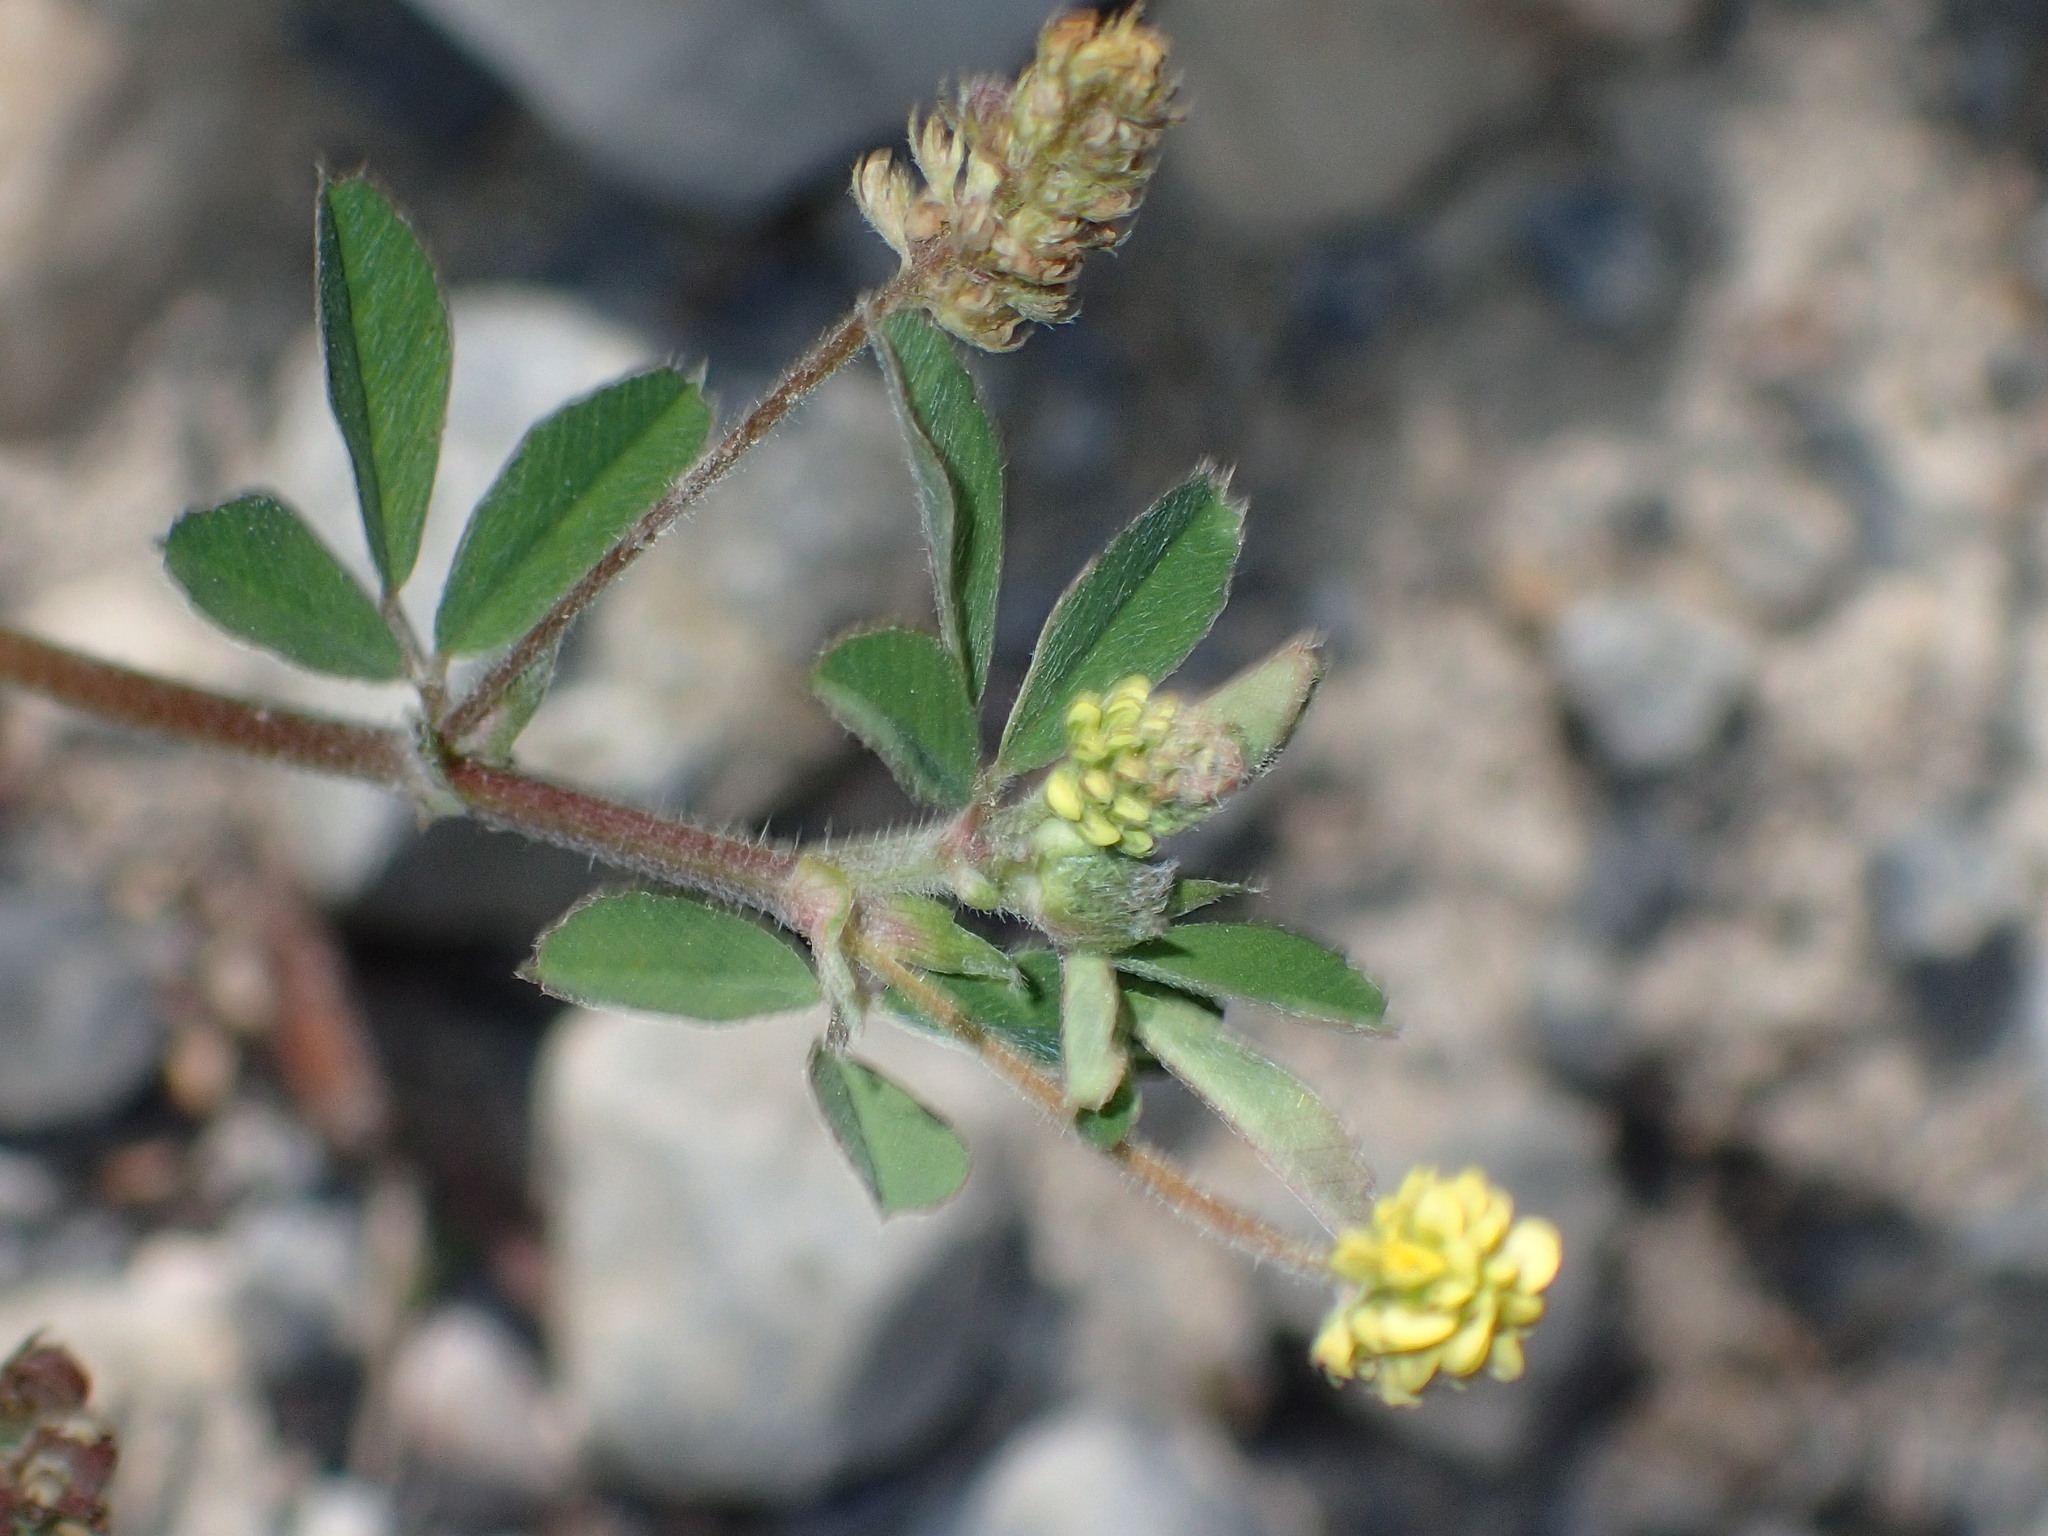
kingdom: Plantae
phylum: Tracheophyta
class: Magnoliopsida
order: Fabales
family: Fabaceae
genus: Medicago
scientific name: Medicago lupulina
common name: Black medick
